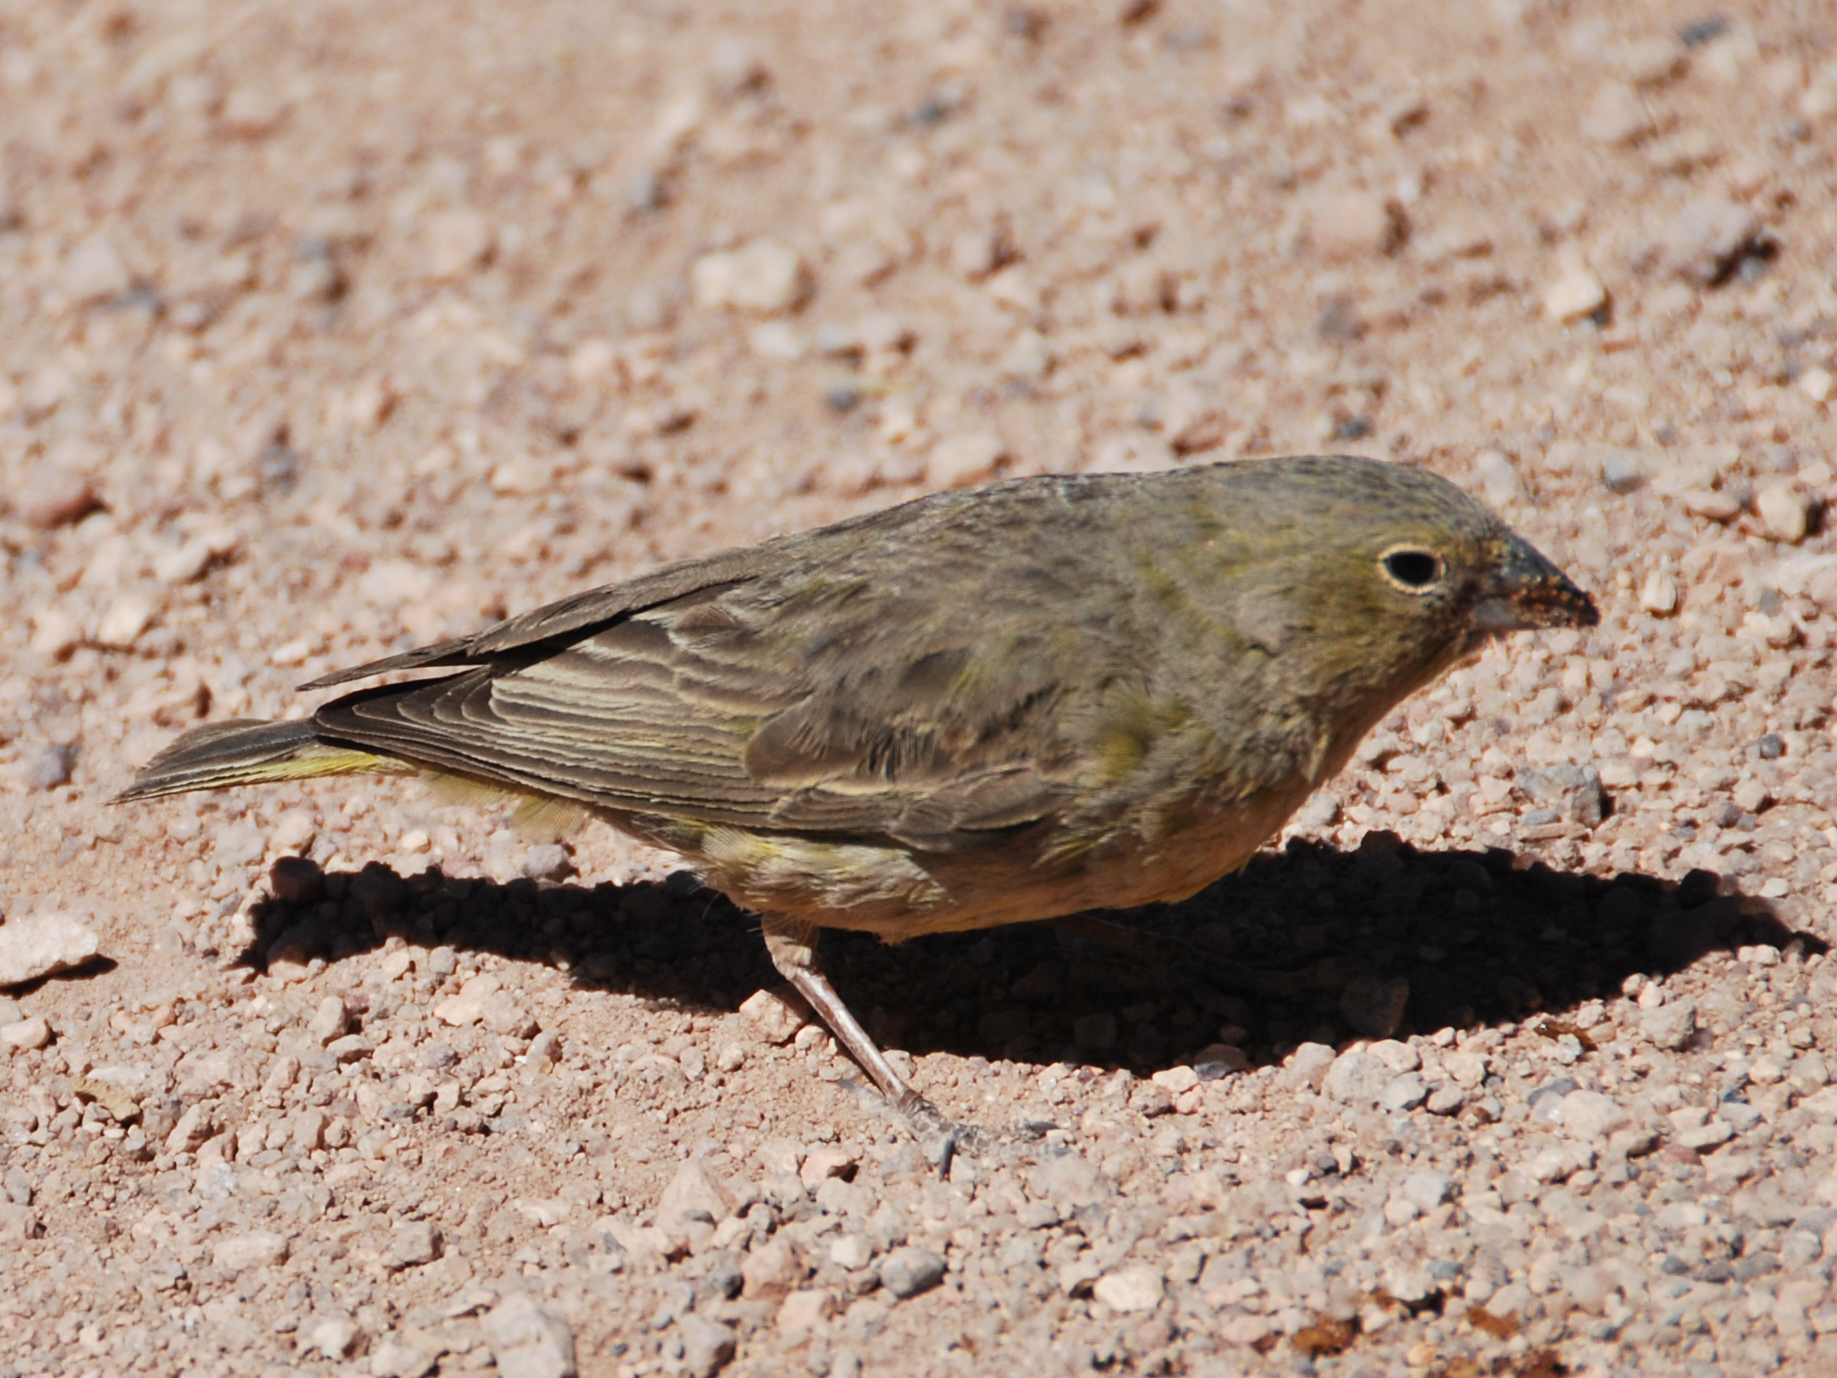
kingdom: Animalia
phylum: Chordata
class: Aves
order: Passeriformes
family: Thraupidae
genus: Sicalis
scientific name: Sicalis olivascens
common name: Greenish yellow finch
